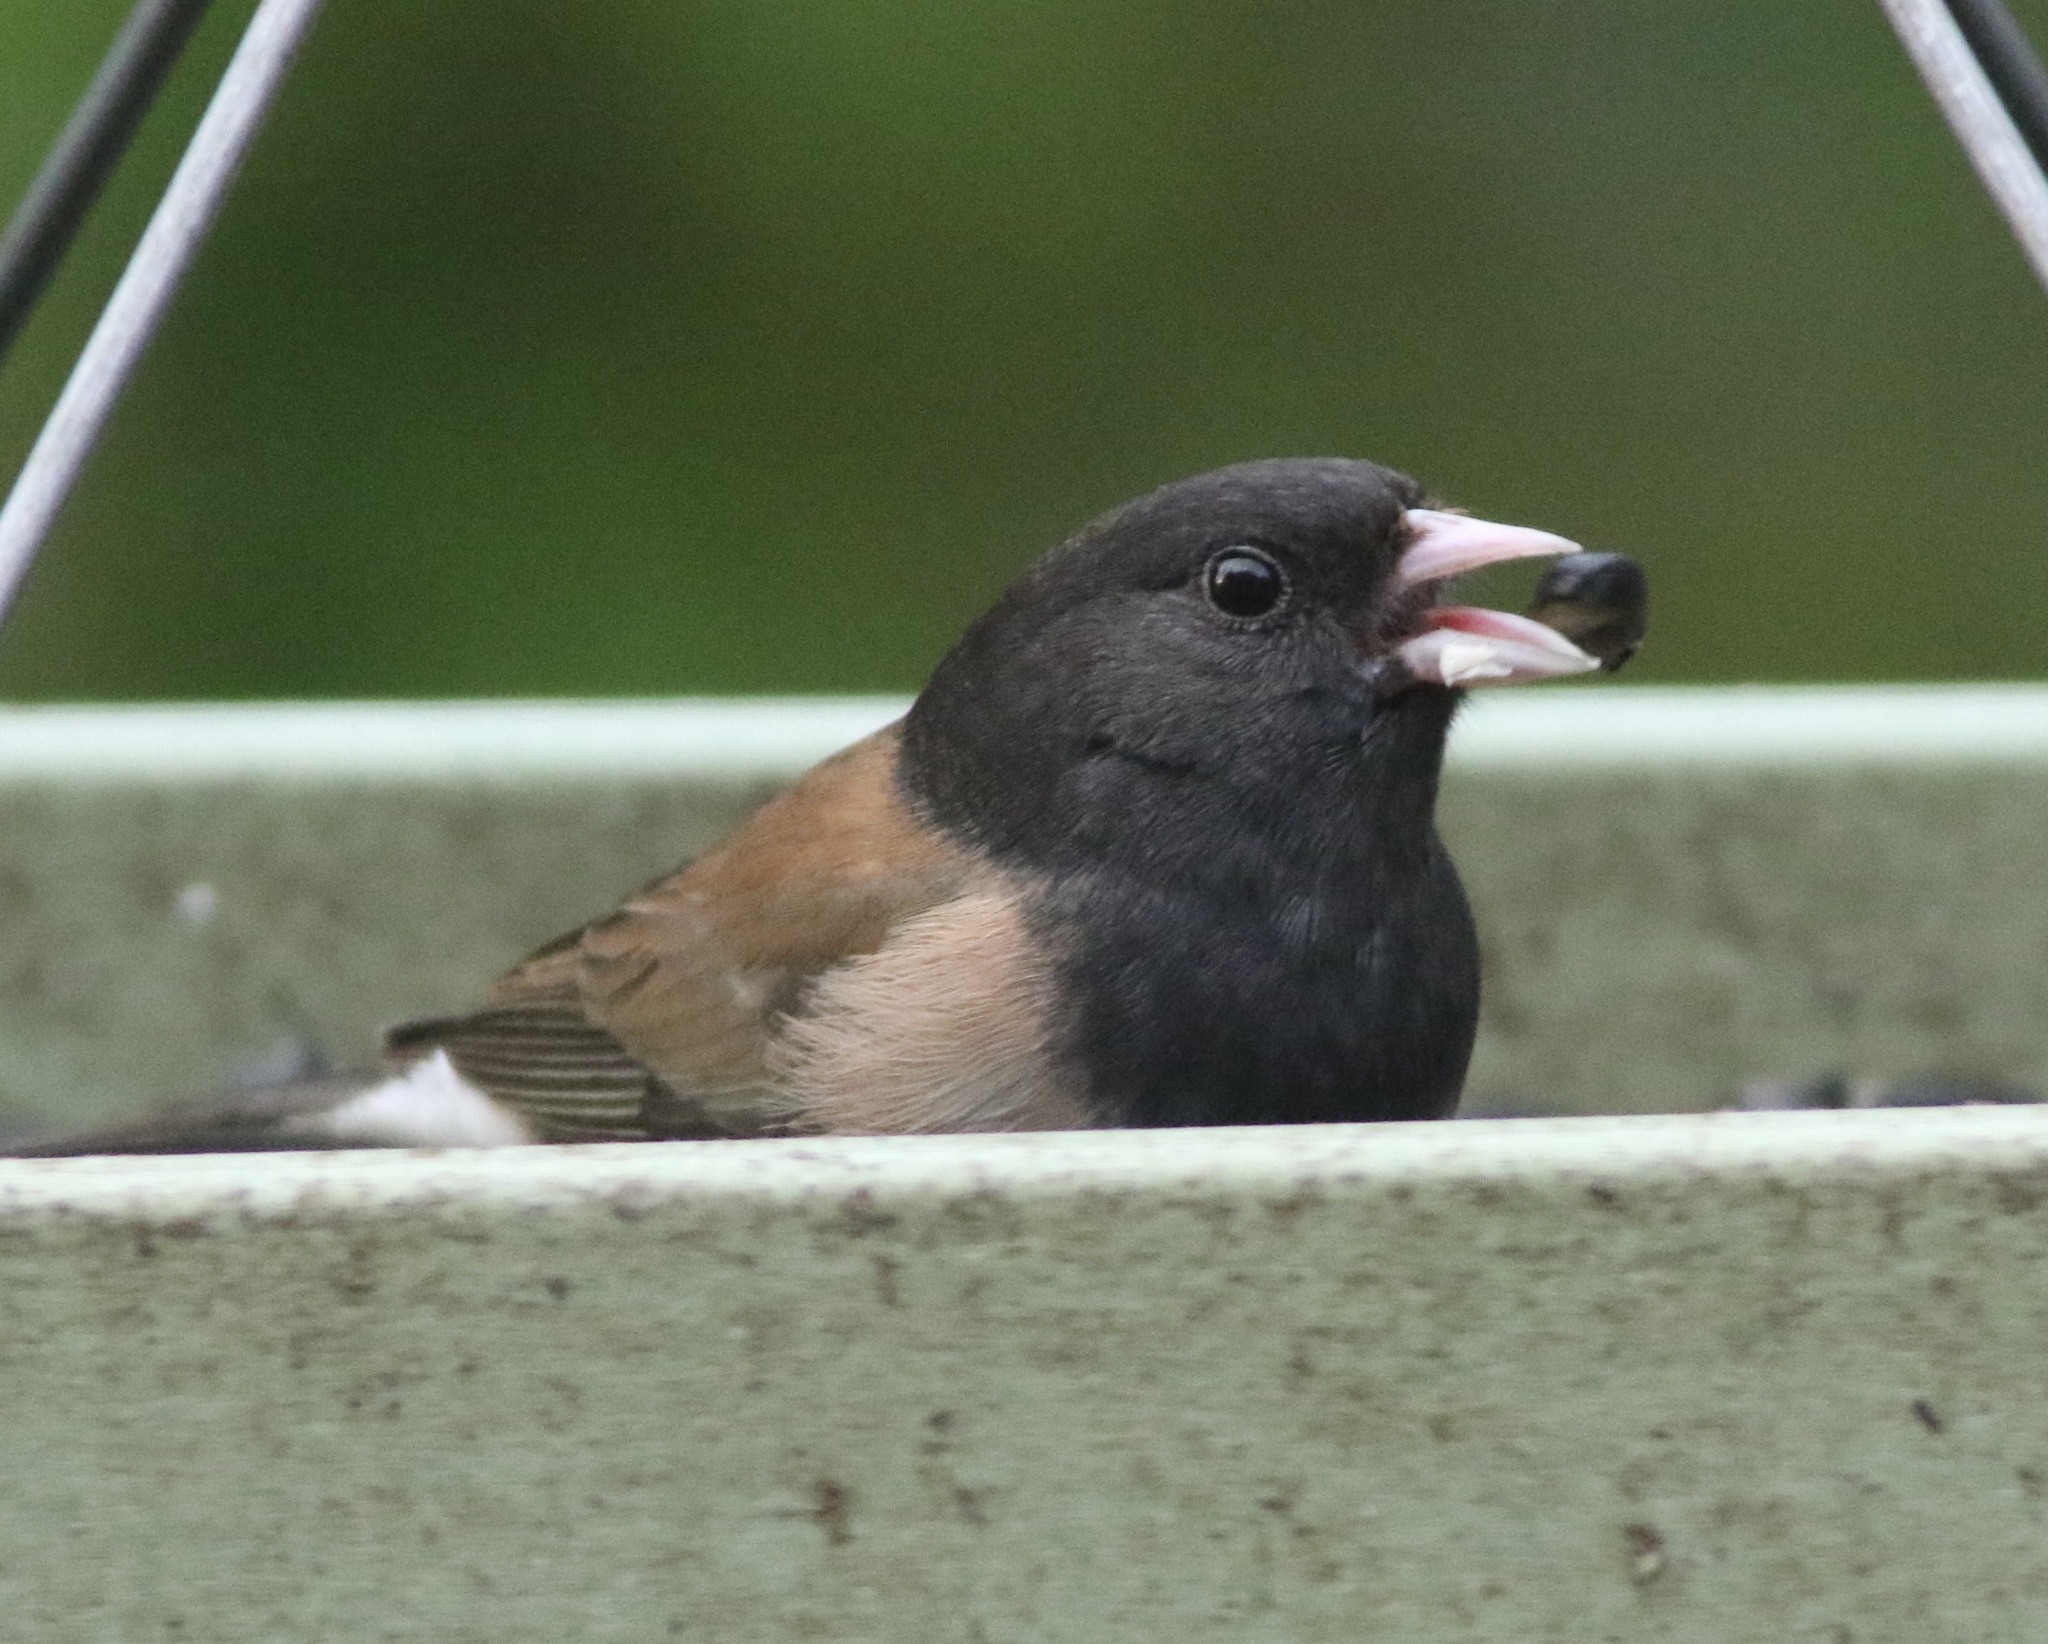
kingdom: Animalia
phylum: Chordata
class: Aves
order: Passeriformes
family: Passerellidae
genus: Junco
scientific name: Junco hyemalis
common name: Dark-eyed junco
